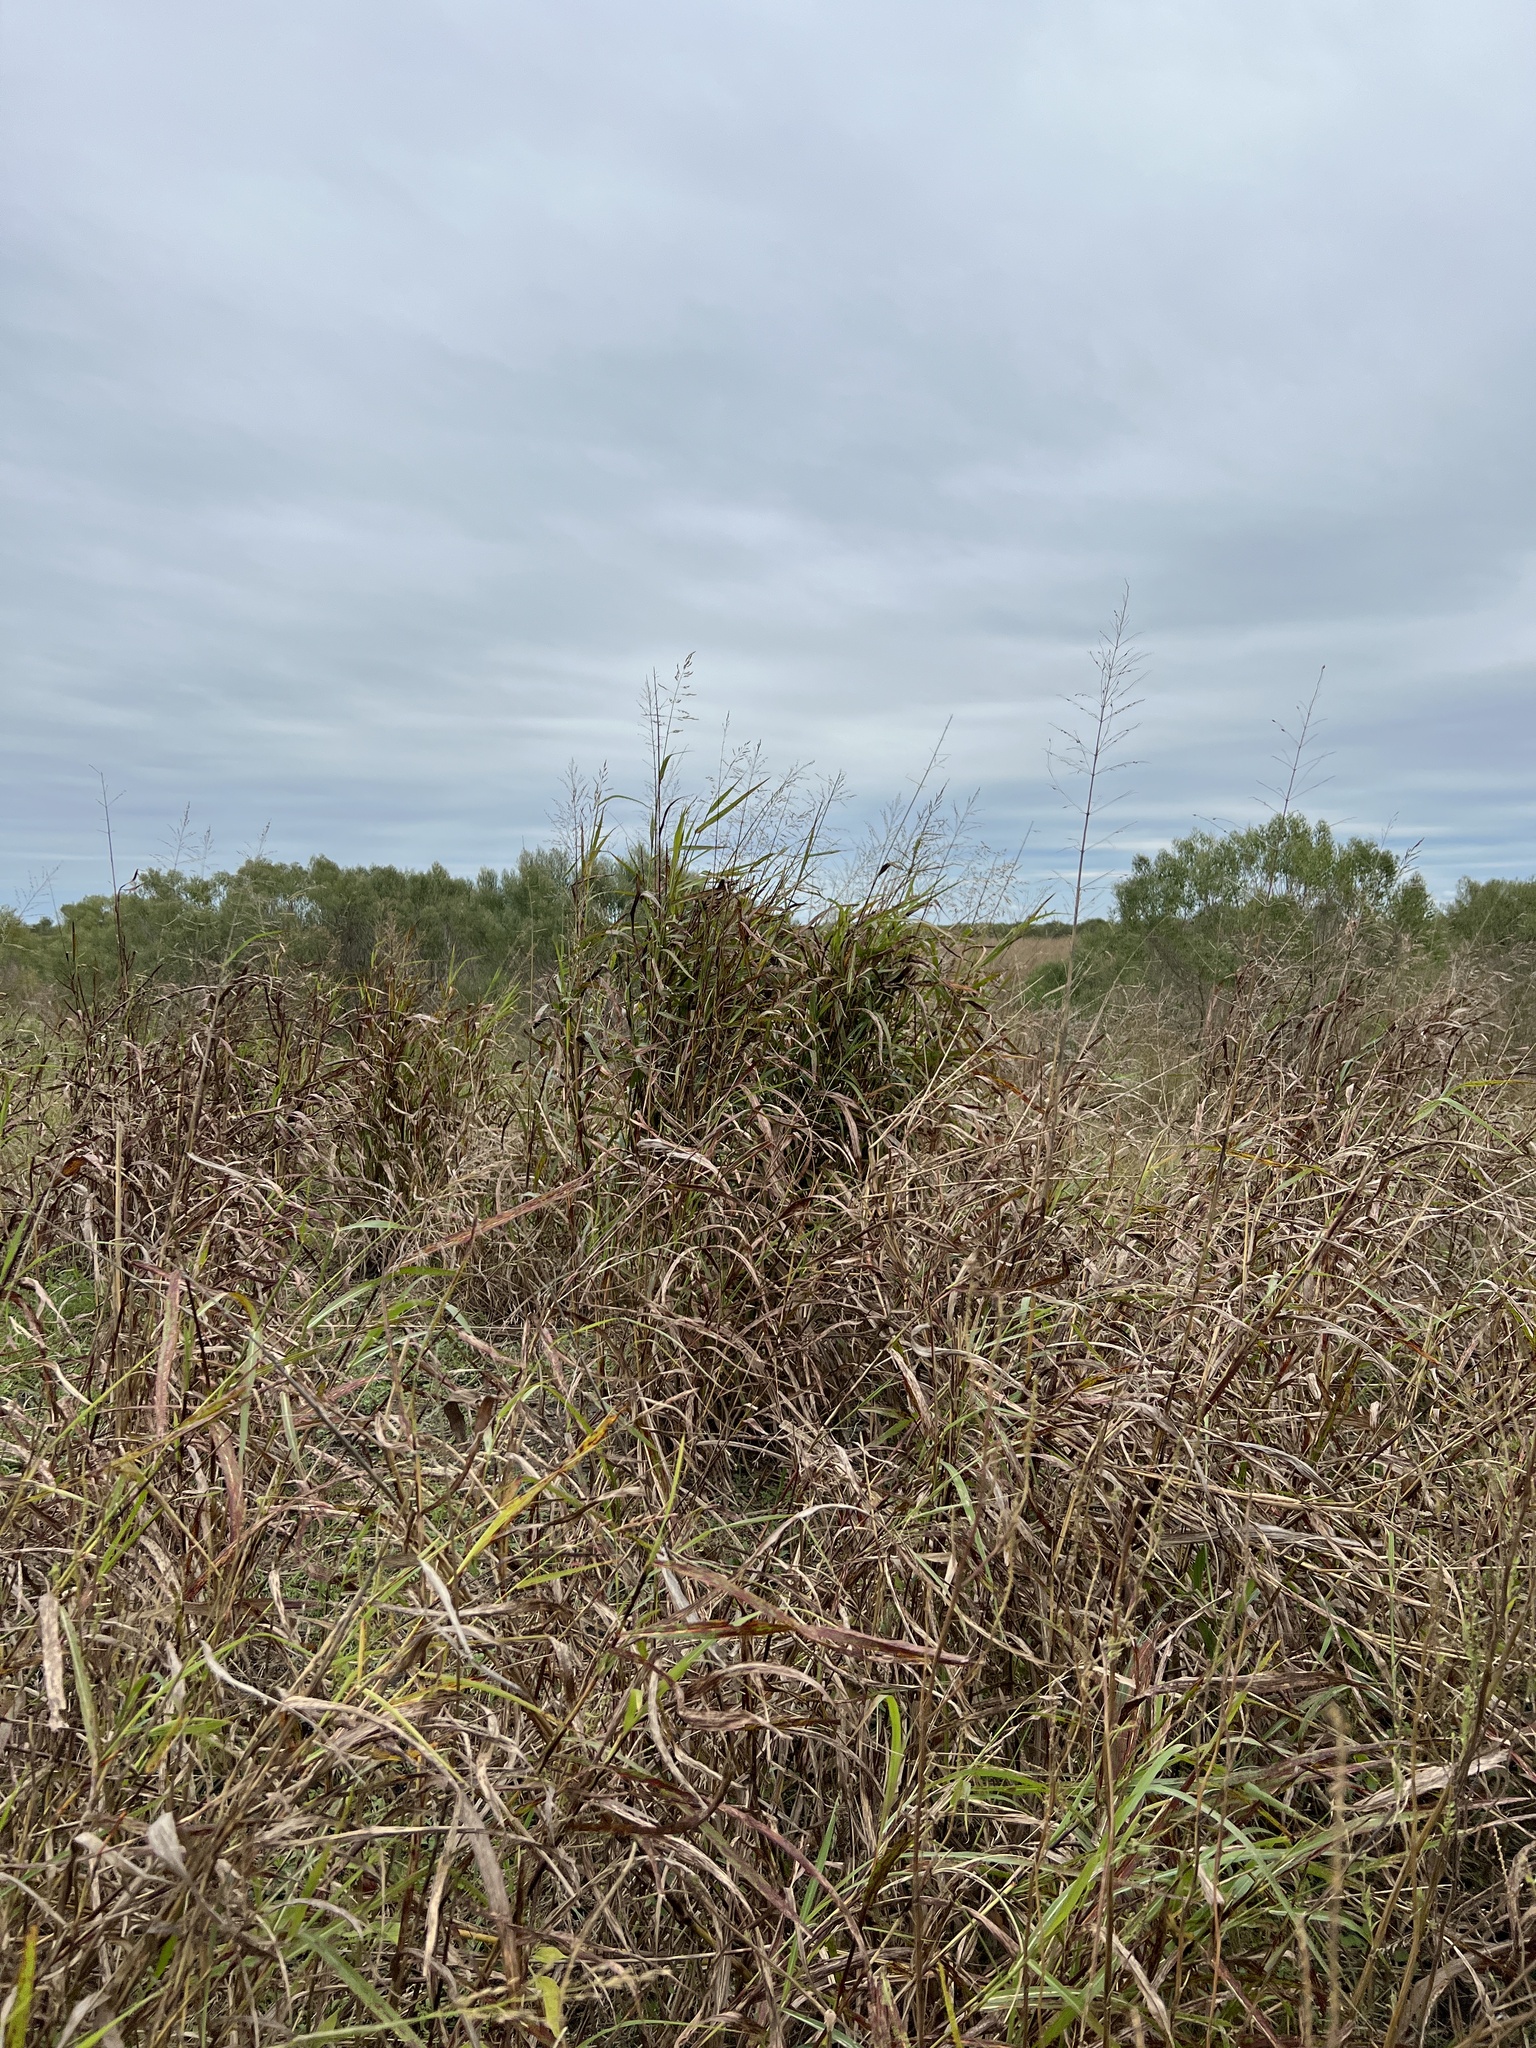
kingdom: Plantae
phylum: Tracheophyta
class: Liliopsida
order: Poales
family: Poaceae
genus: Sorghum
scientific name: Sorghum halepense
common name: Johnson-grass
